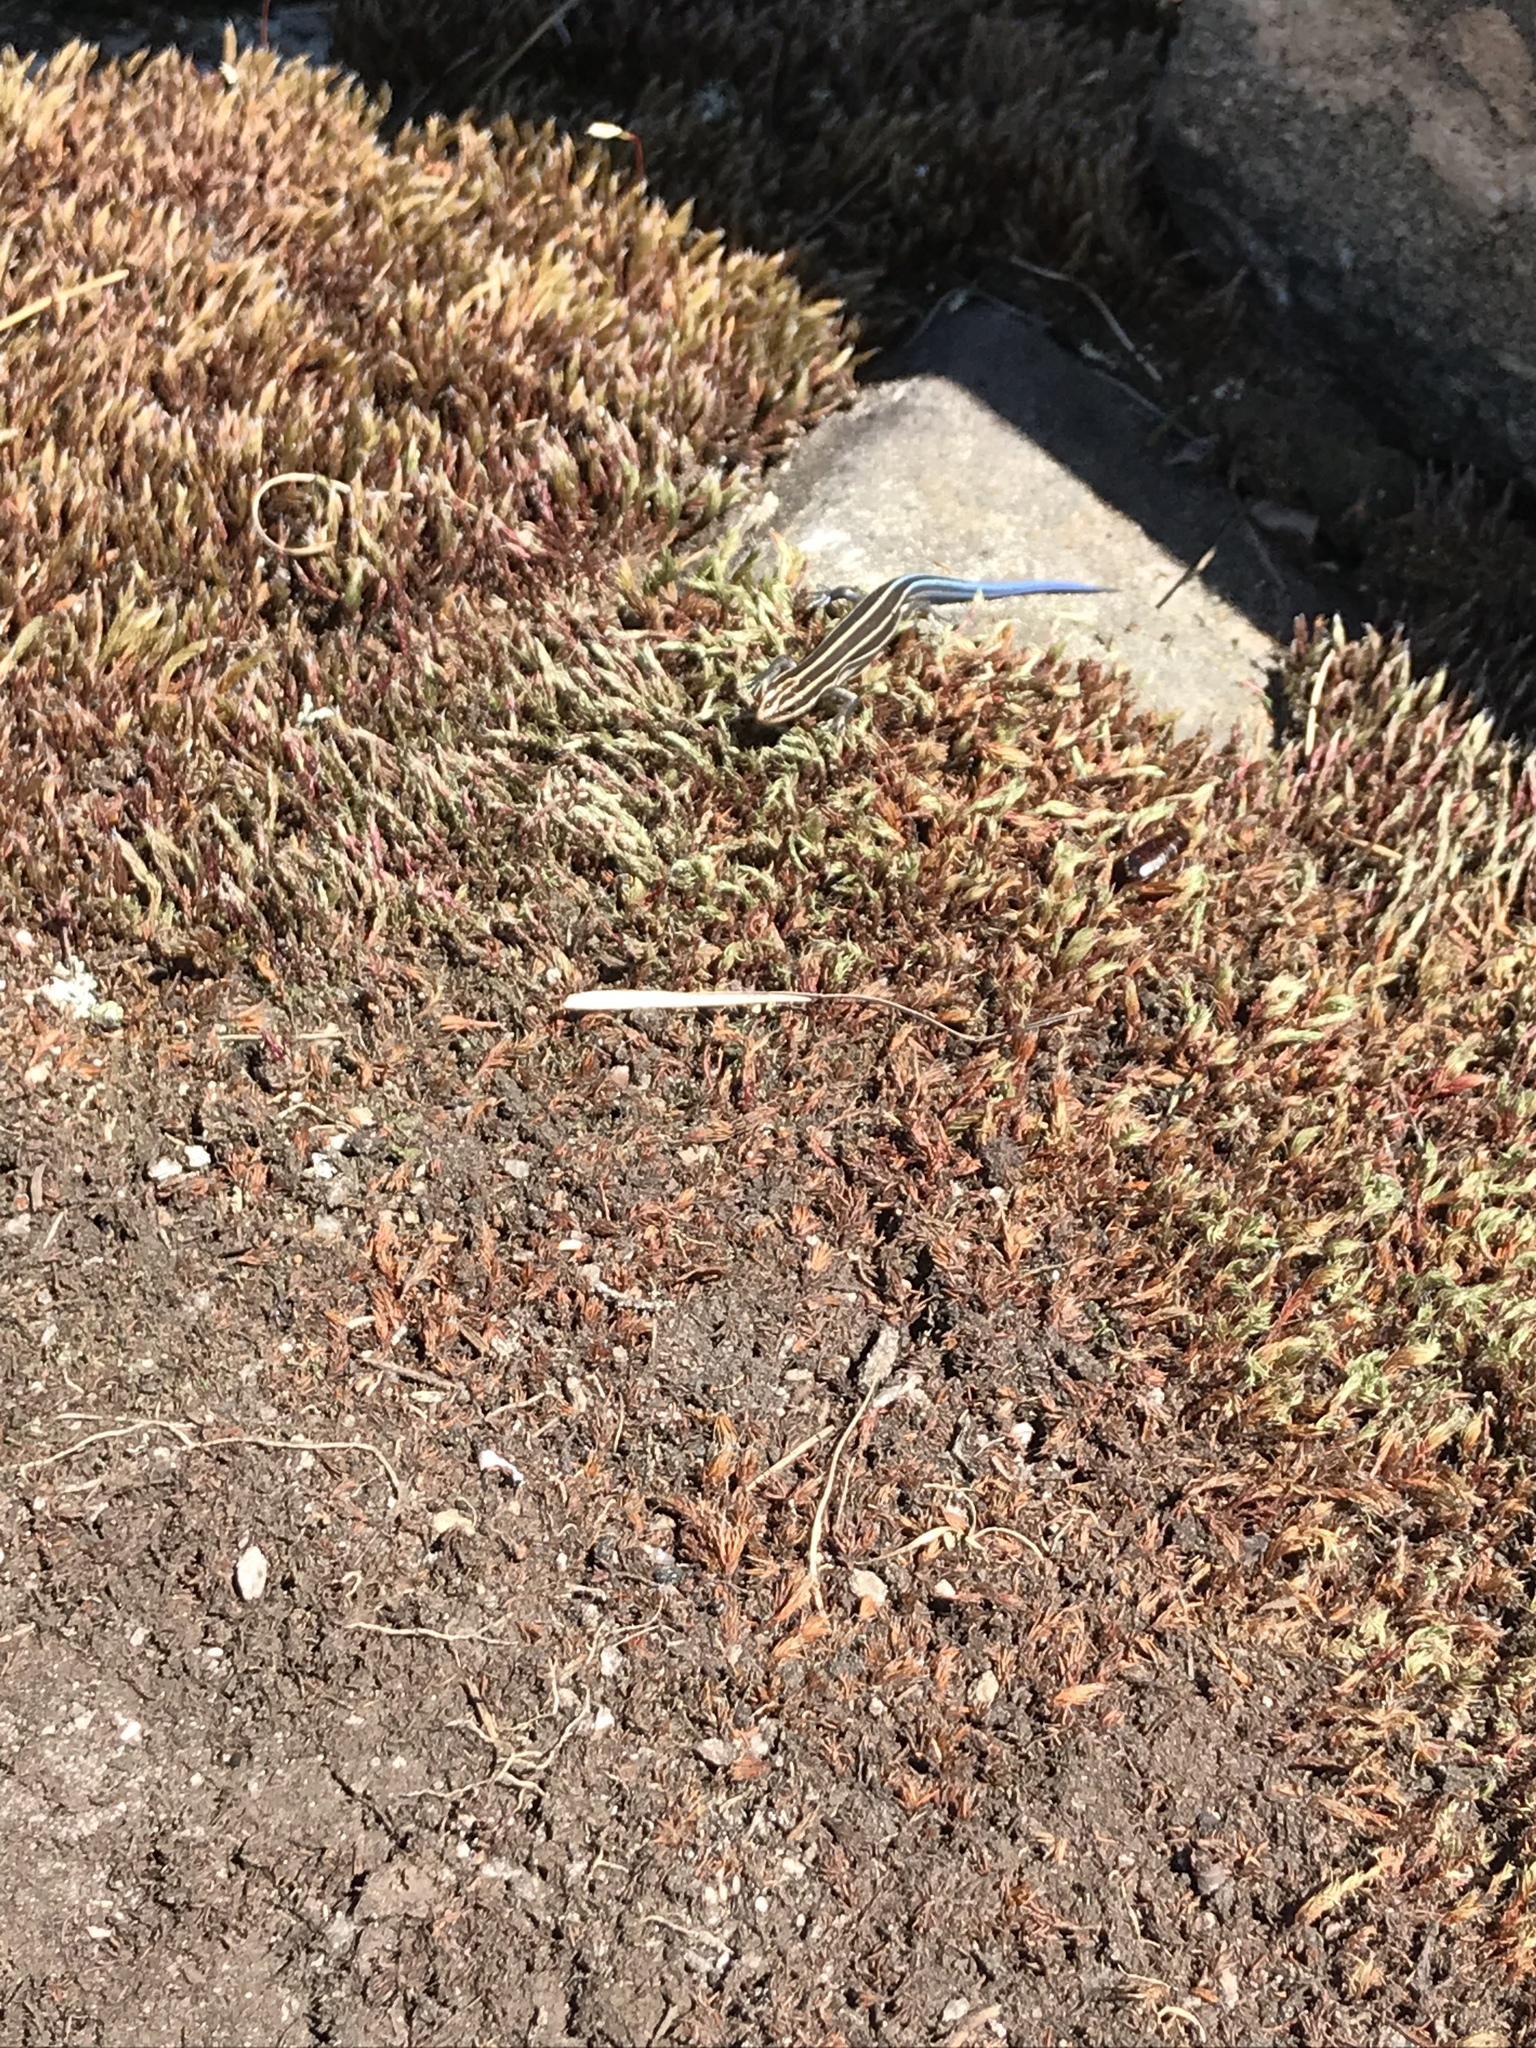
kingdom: Animalia
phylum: Chordata
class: Squamata
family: Scincidae
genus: Plestiodon
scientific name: Plestiodon fasciatus
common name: Five-lined skink
